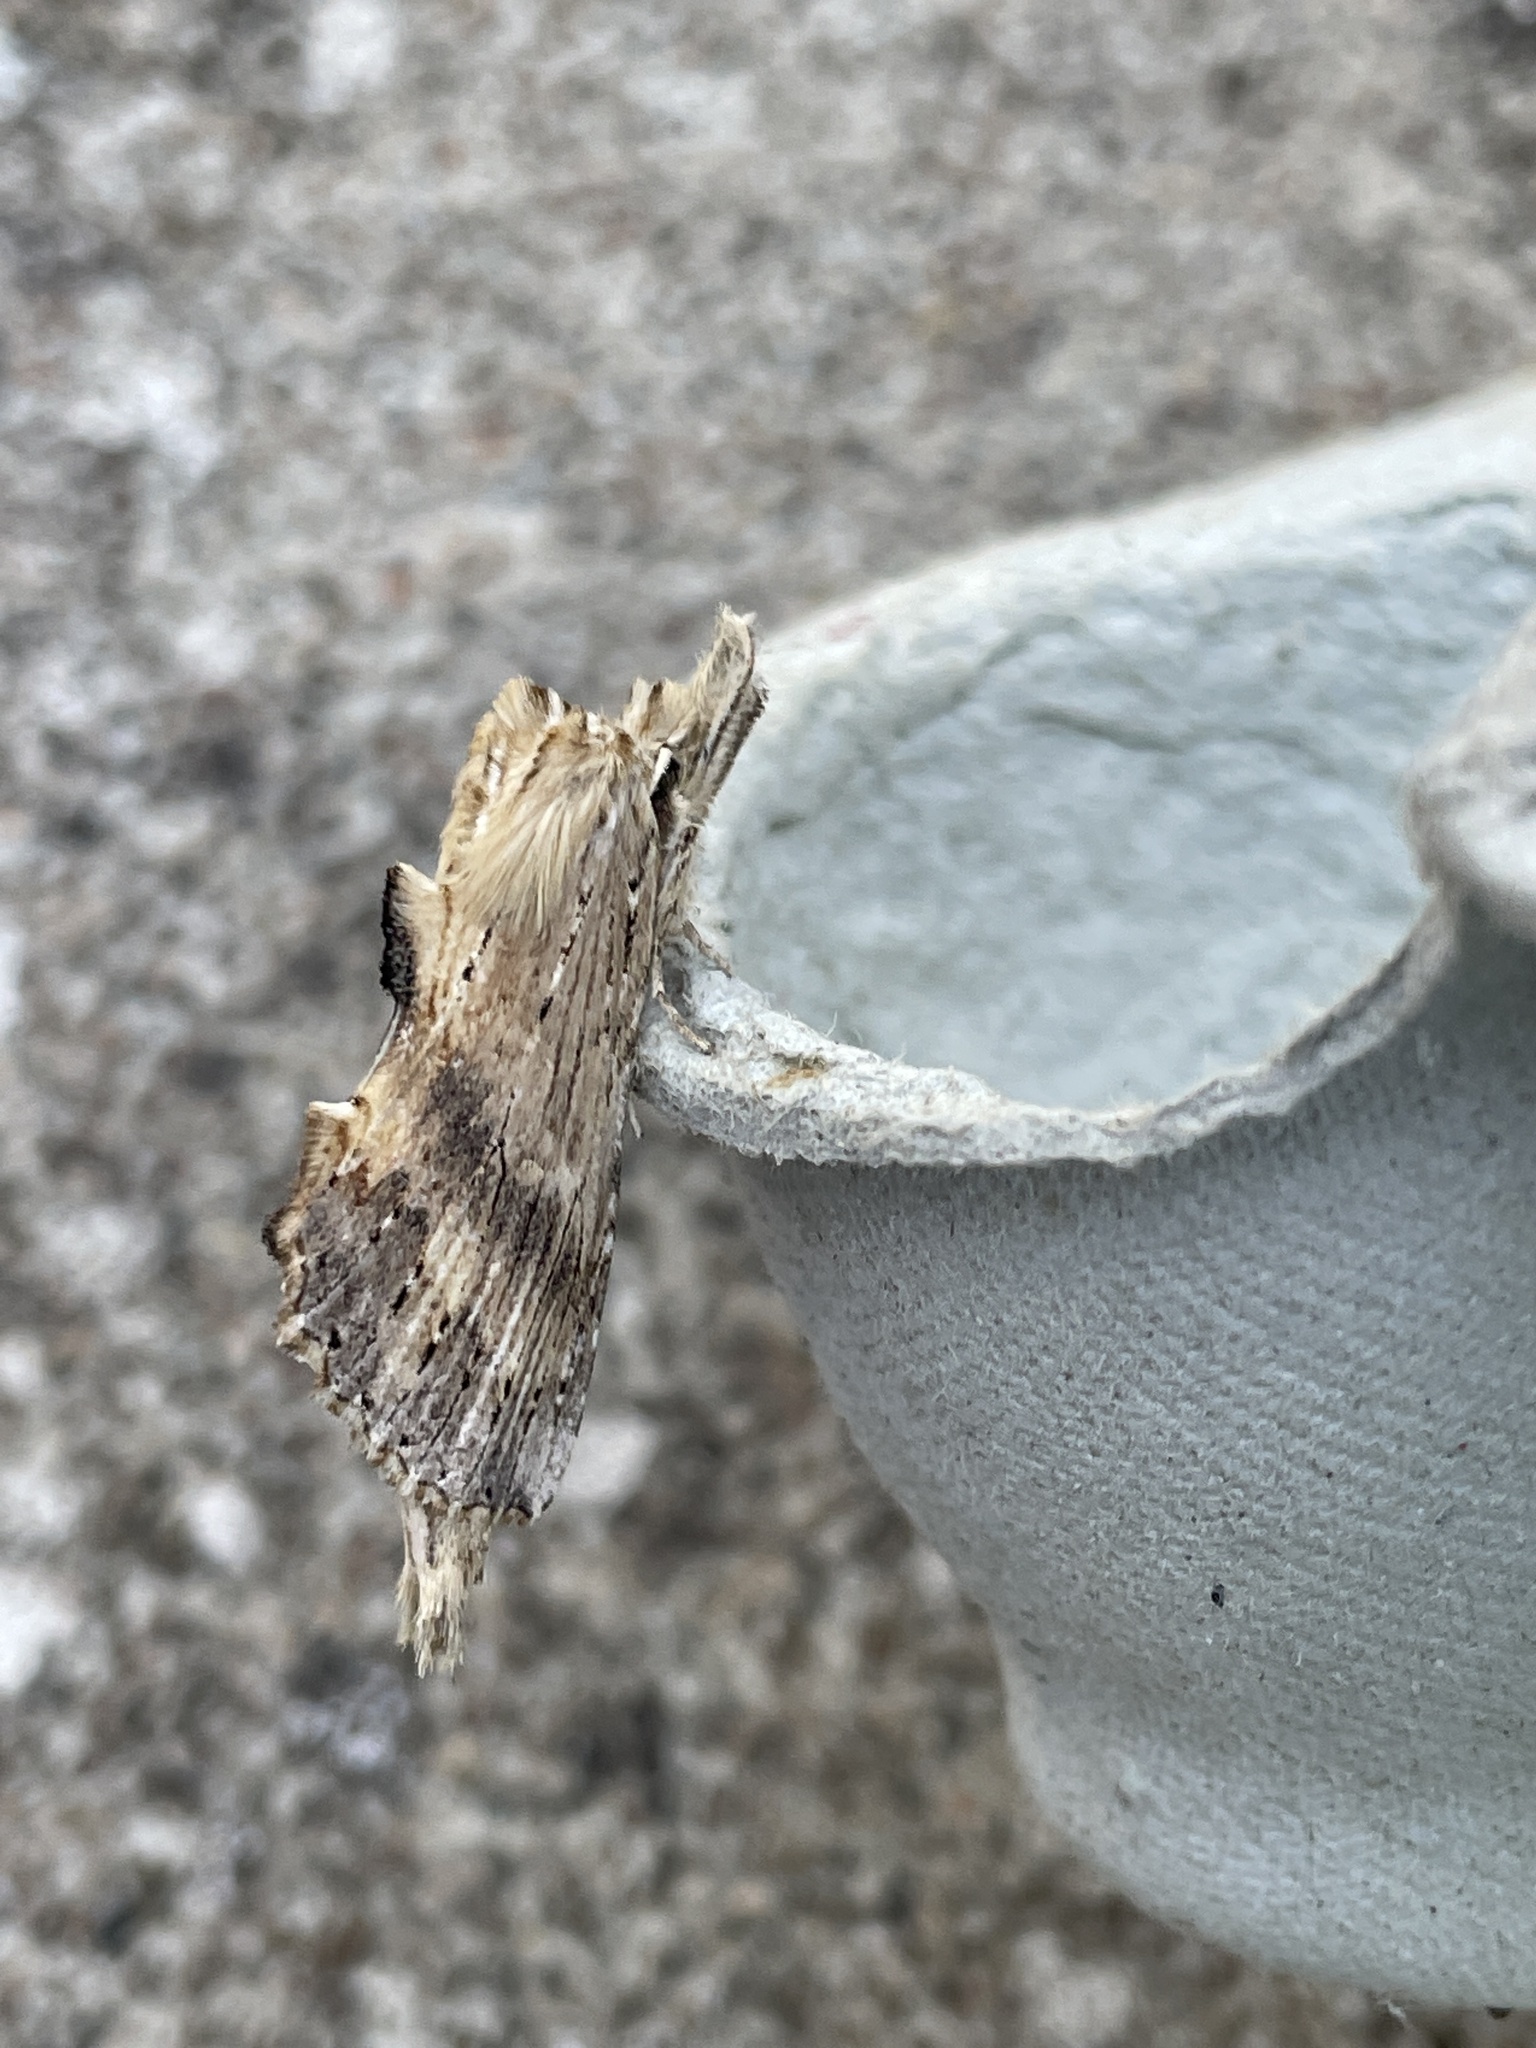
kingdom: Animalia
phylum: Arthropoda
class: Insecta
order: Lepidoptera
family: Notodontidae
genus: Pterostoma
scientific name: Pterostoma palpina
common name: Pale prominent
